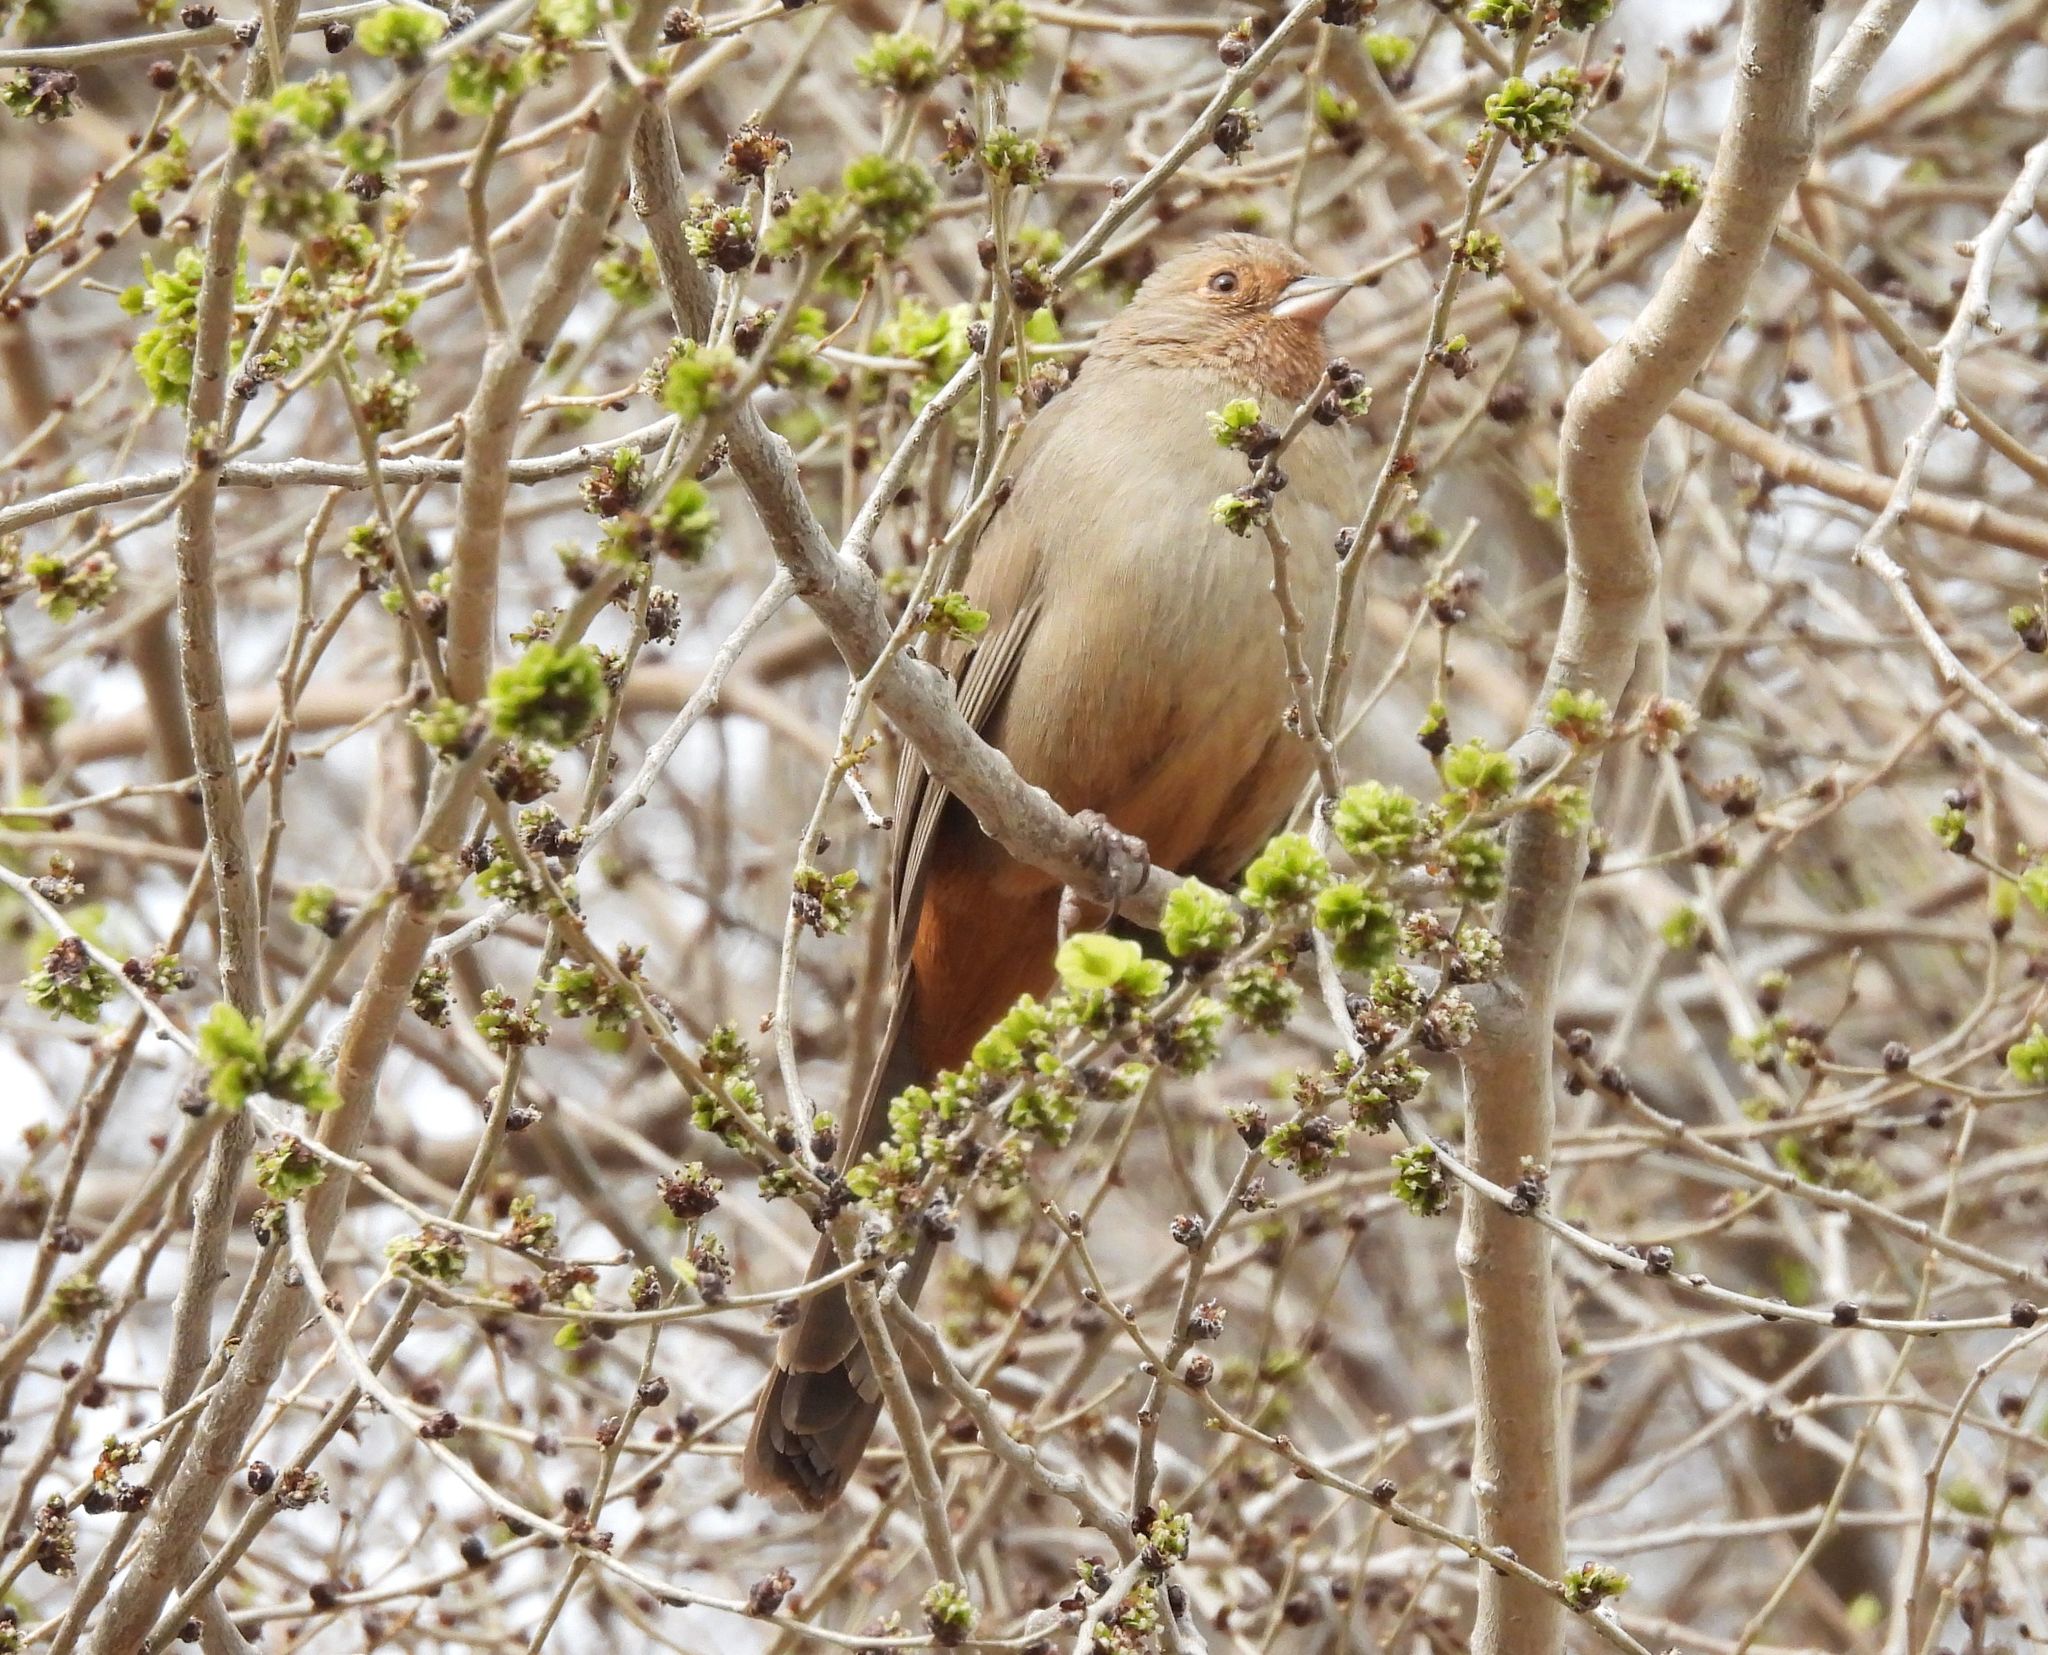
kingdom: Animalia
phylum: Chordata
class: Aves
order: Passeriformes
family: Passerellidae
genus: Melozone
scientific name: Melozone crissalis
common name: California towhee
